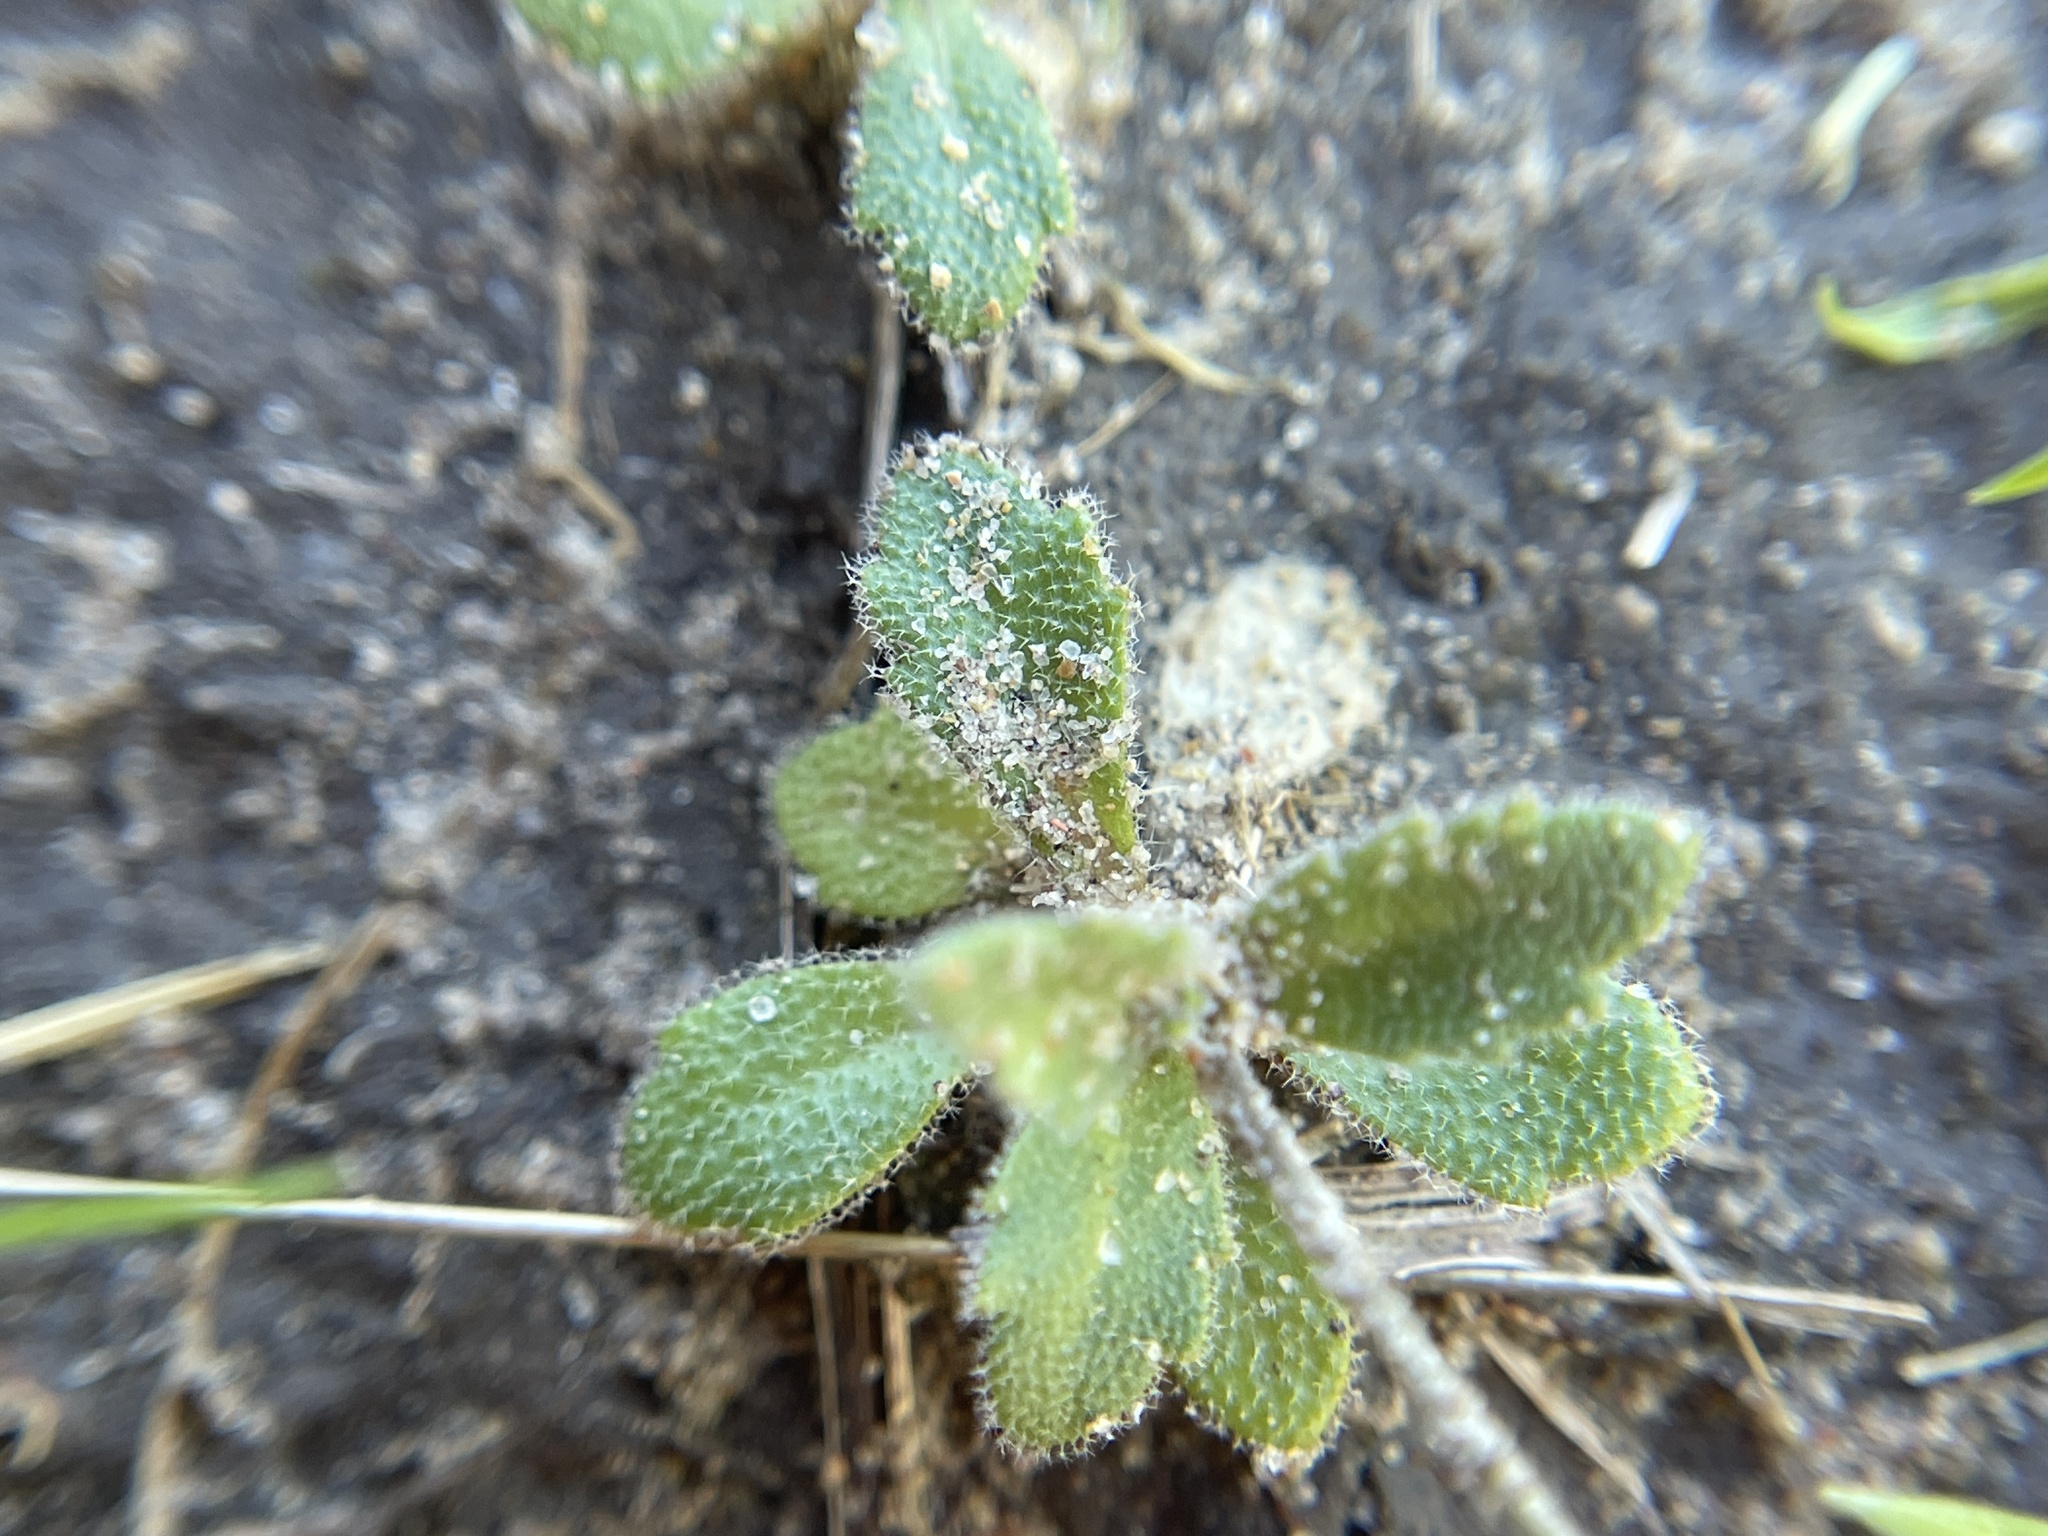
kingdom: Plantae
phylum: Tracheophyta
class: Magnoliopsida
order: Brassicales
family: Brassicaceae
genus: Tomostima
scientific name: Tomostima cuneifolia
